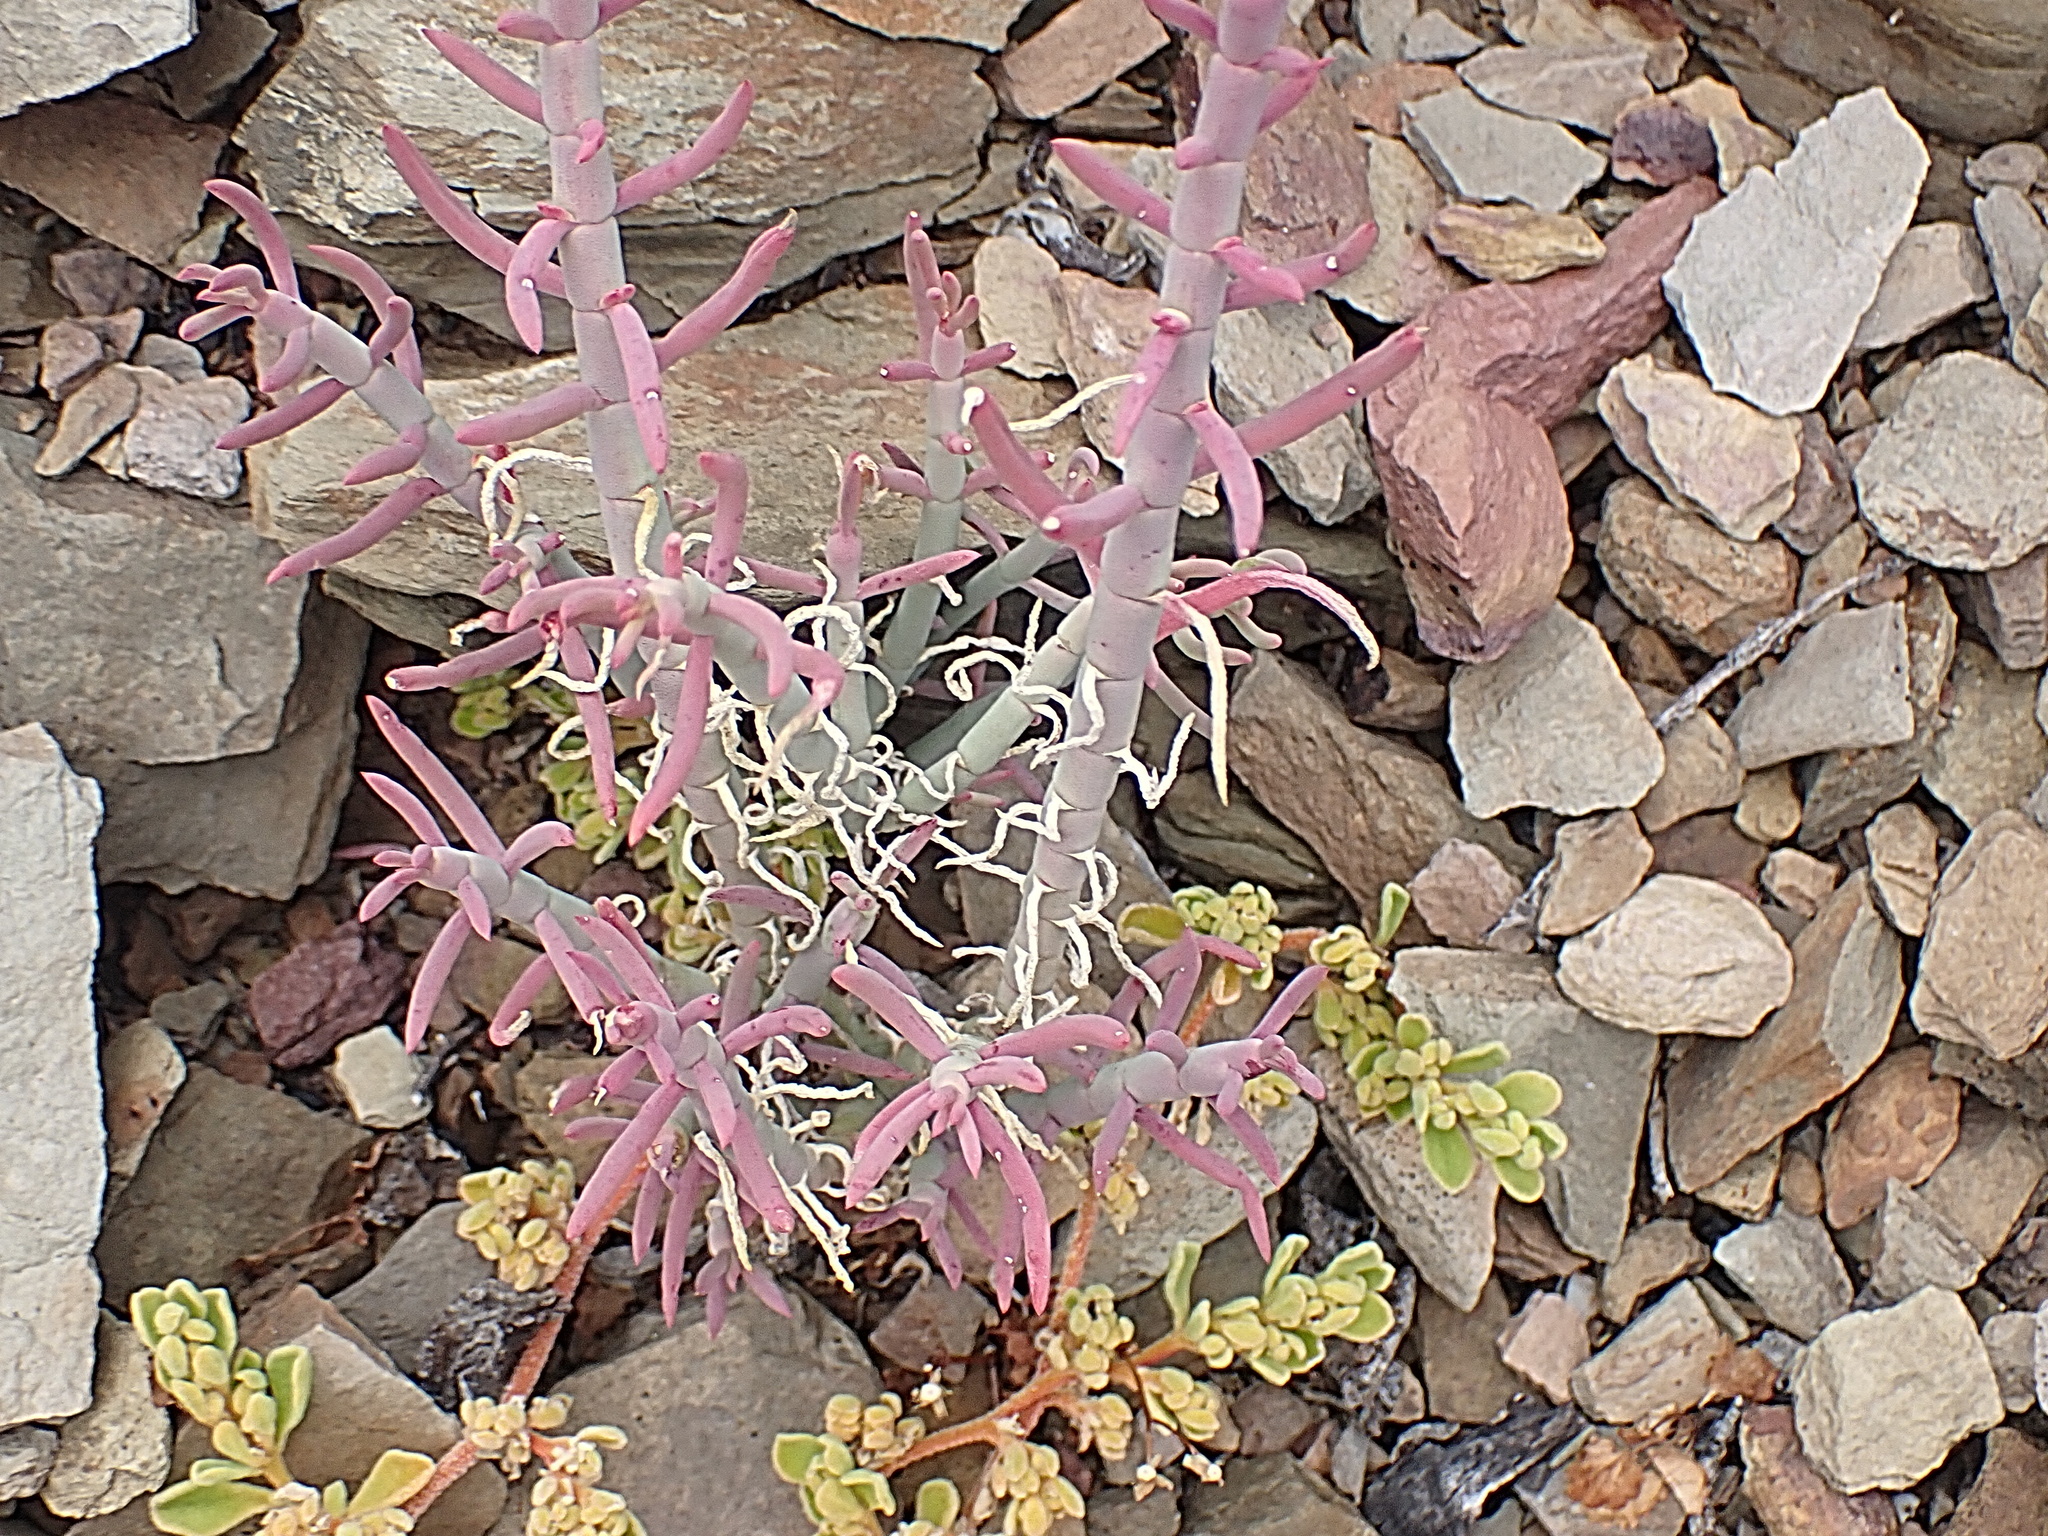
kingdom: Plantae
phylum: Tracheophyta
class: Magnoliopsida
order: Caryophyllales
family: Aizoaceae
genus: Mesembryanthemum
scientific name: Mesembryanthemum junceum
